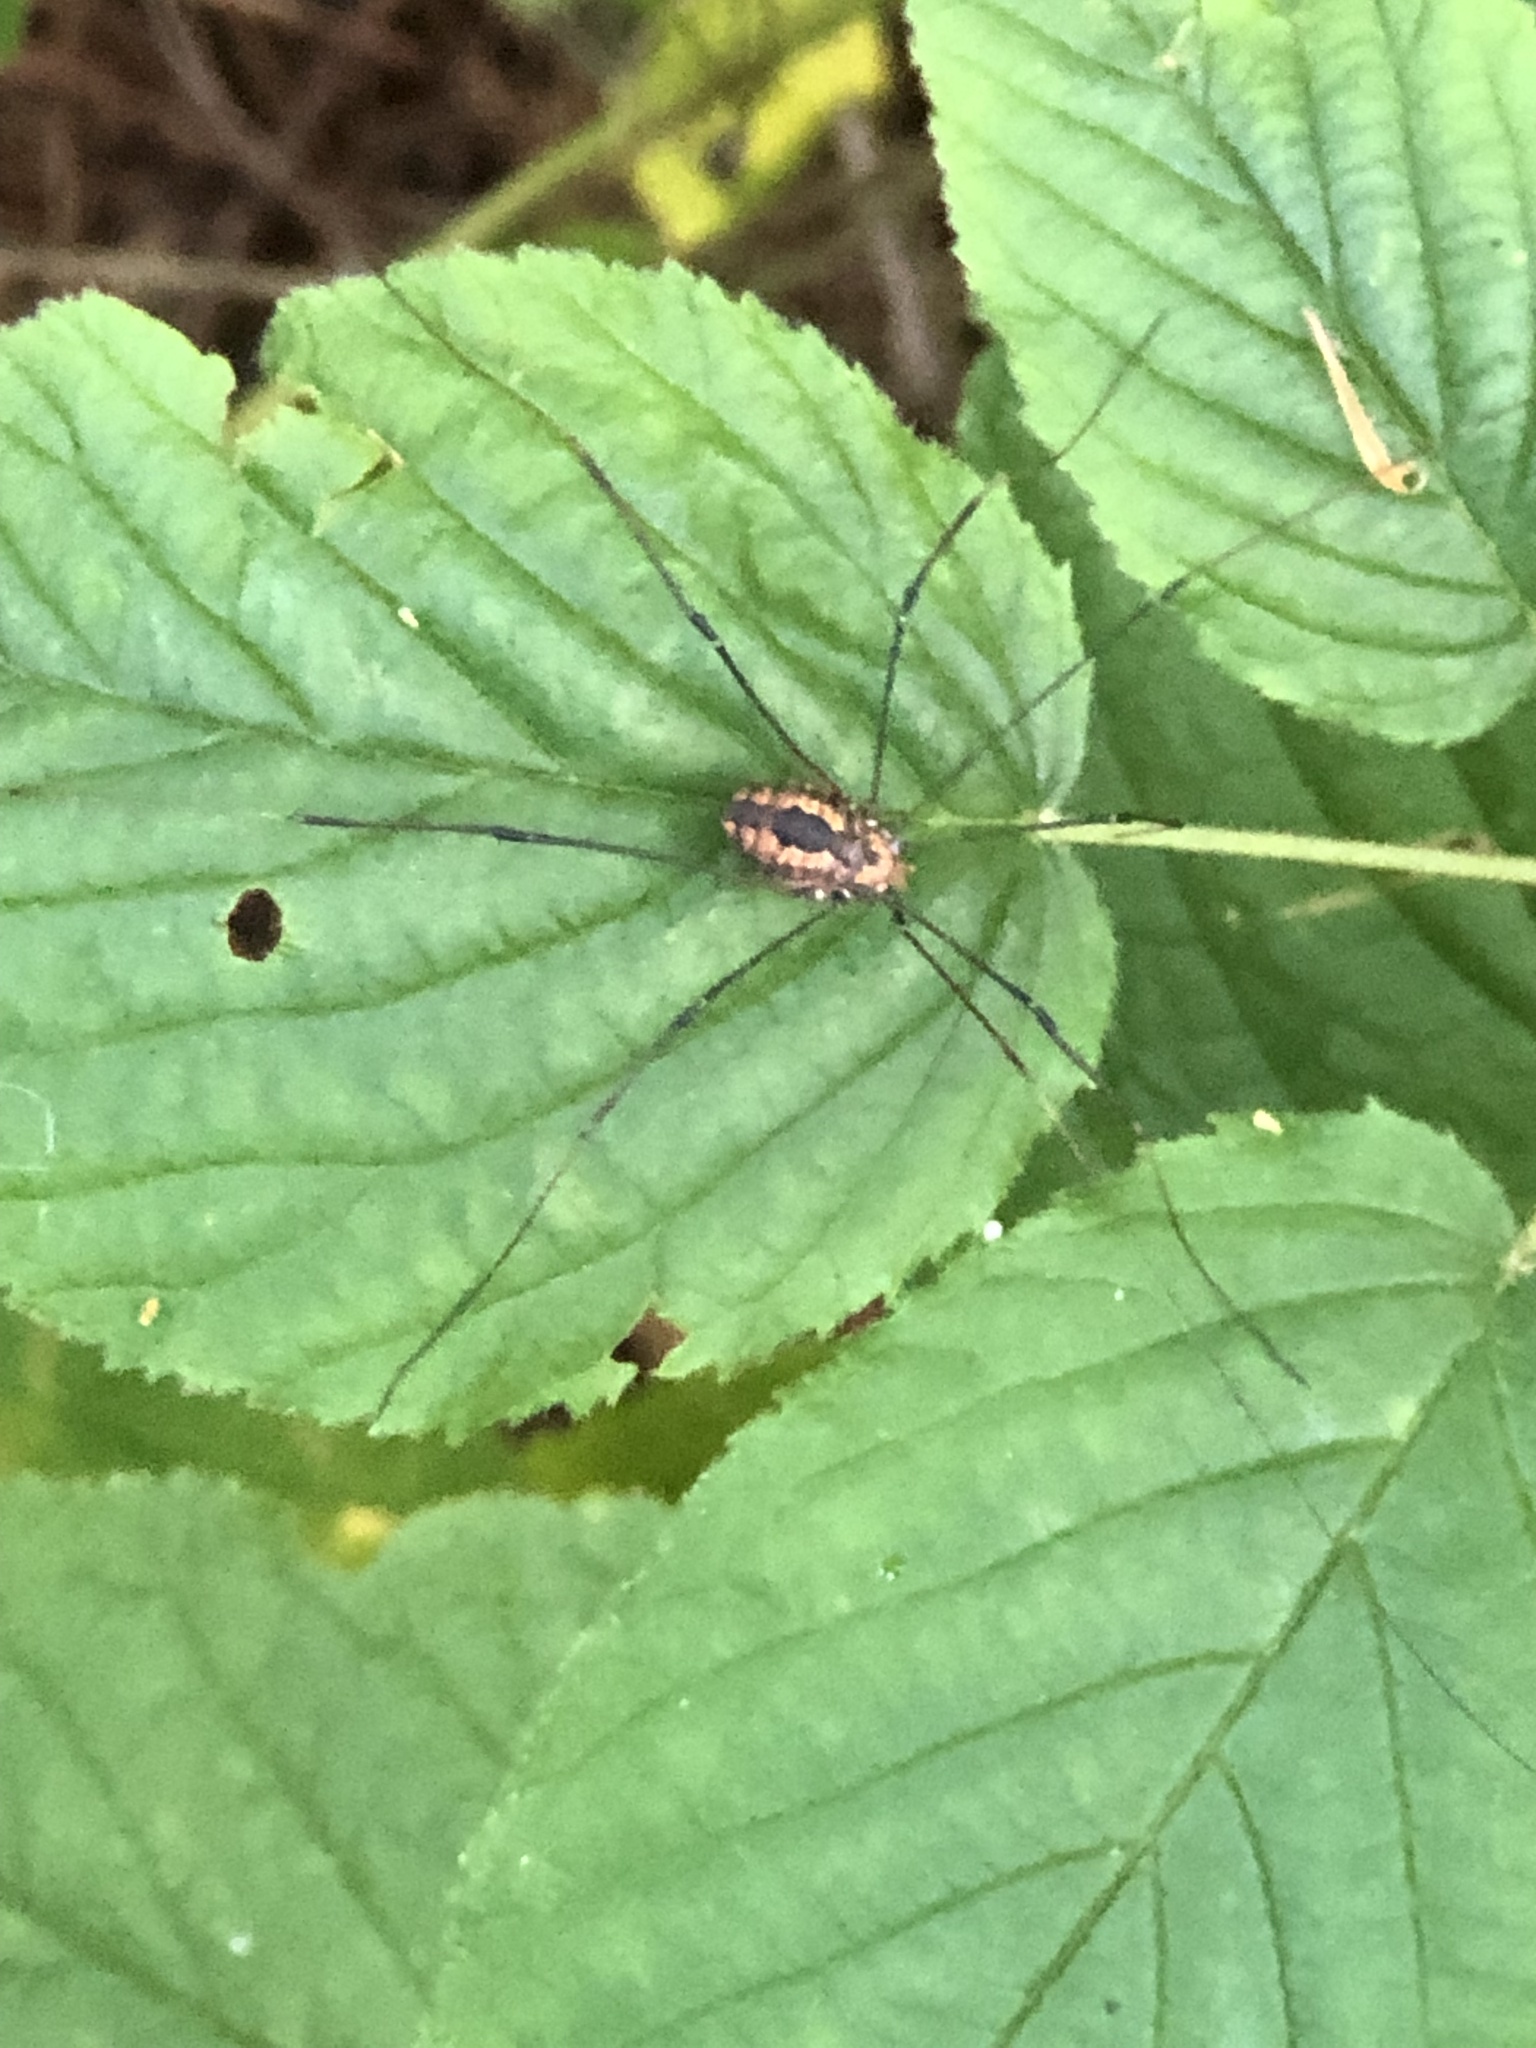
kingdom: Animalia
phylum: Arthropoda
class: Arachnida
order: Opiliones
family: Sclerosomatidae
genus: Leiobunum
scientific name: Leiobunum vittatum
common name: Eastern harvestman
